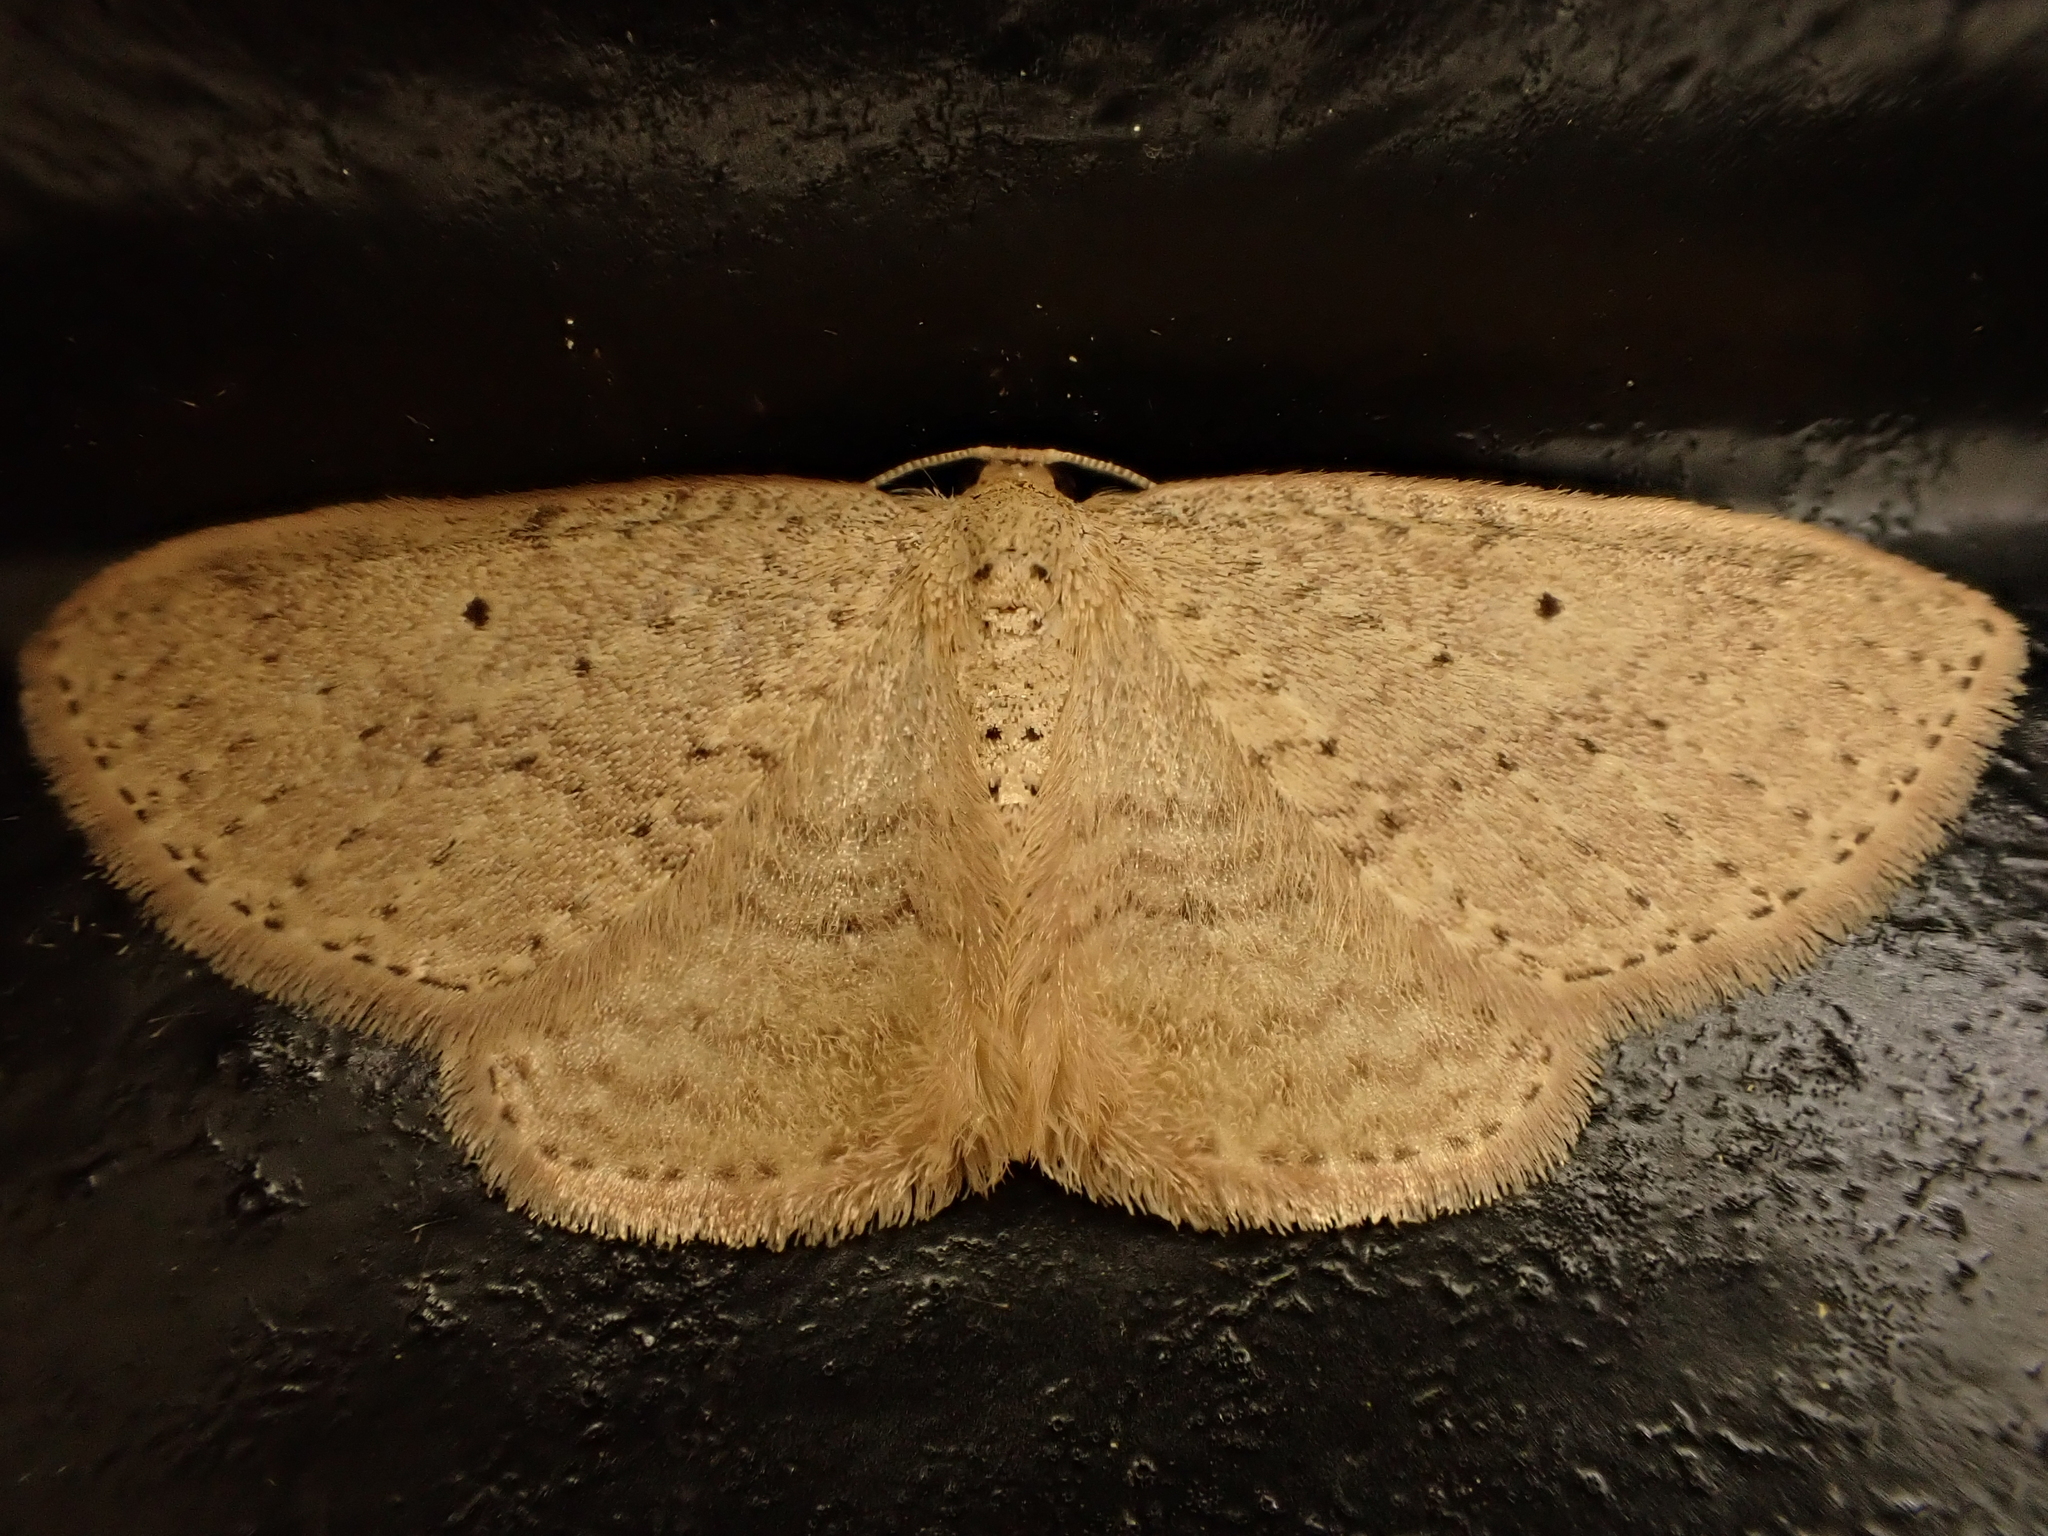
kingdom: Animalia
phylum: Arthropoda
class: Insecta
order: Lepidoptera
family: Geometridae
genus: Poecilasthena
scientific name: Poecilasthena schistaria
